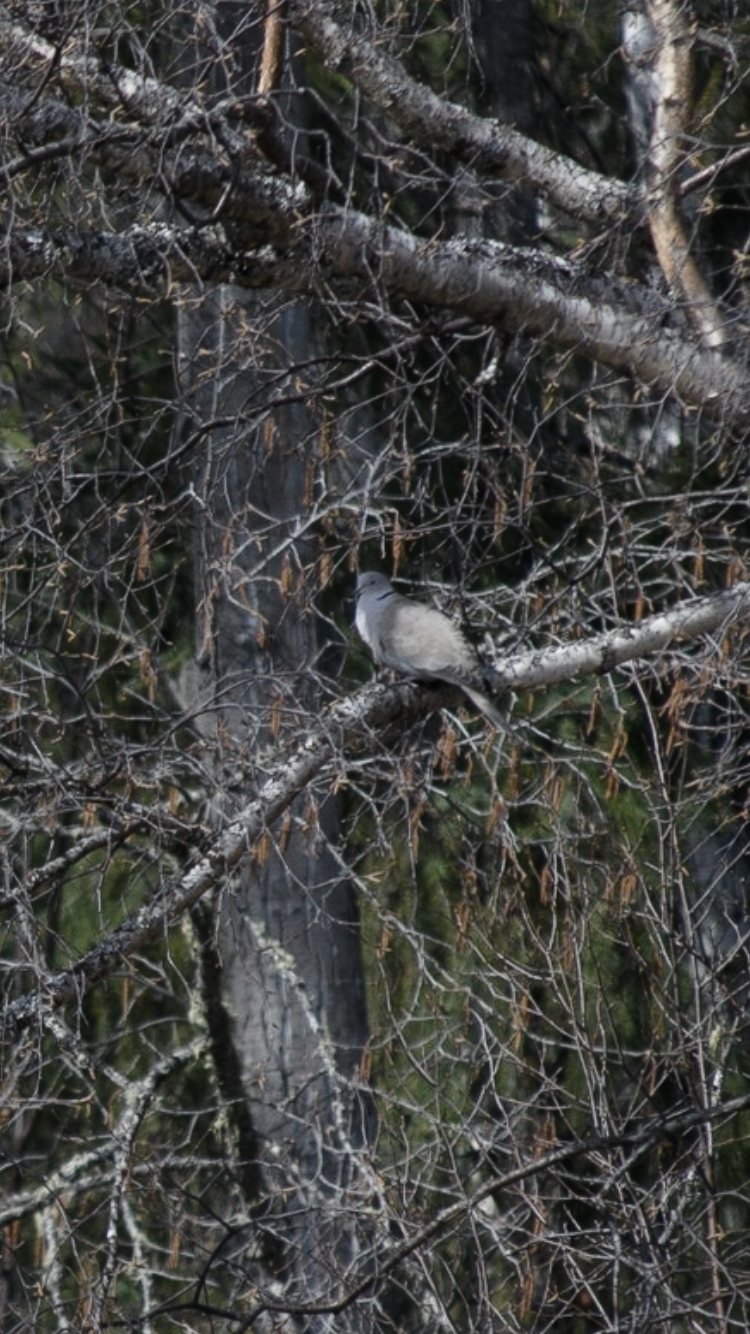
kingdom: Animalia
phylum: Chordata
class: Aves
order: Columbiformes
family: Columbidae
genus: Streptopelia
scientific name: Streptopelia decaocto
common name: Eurasian collared dove
